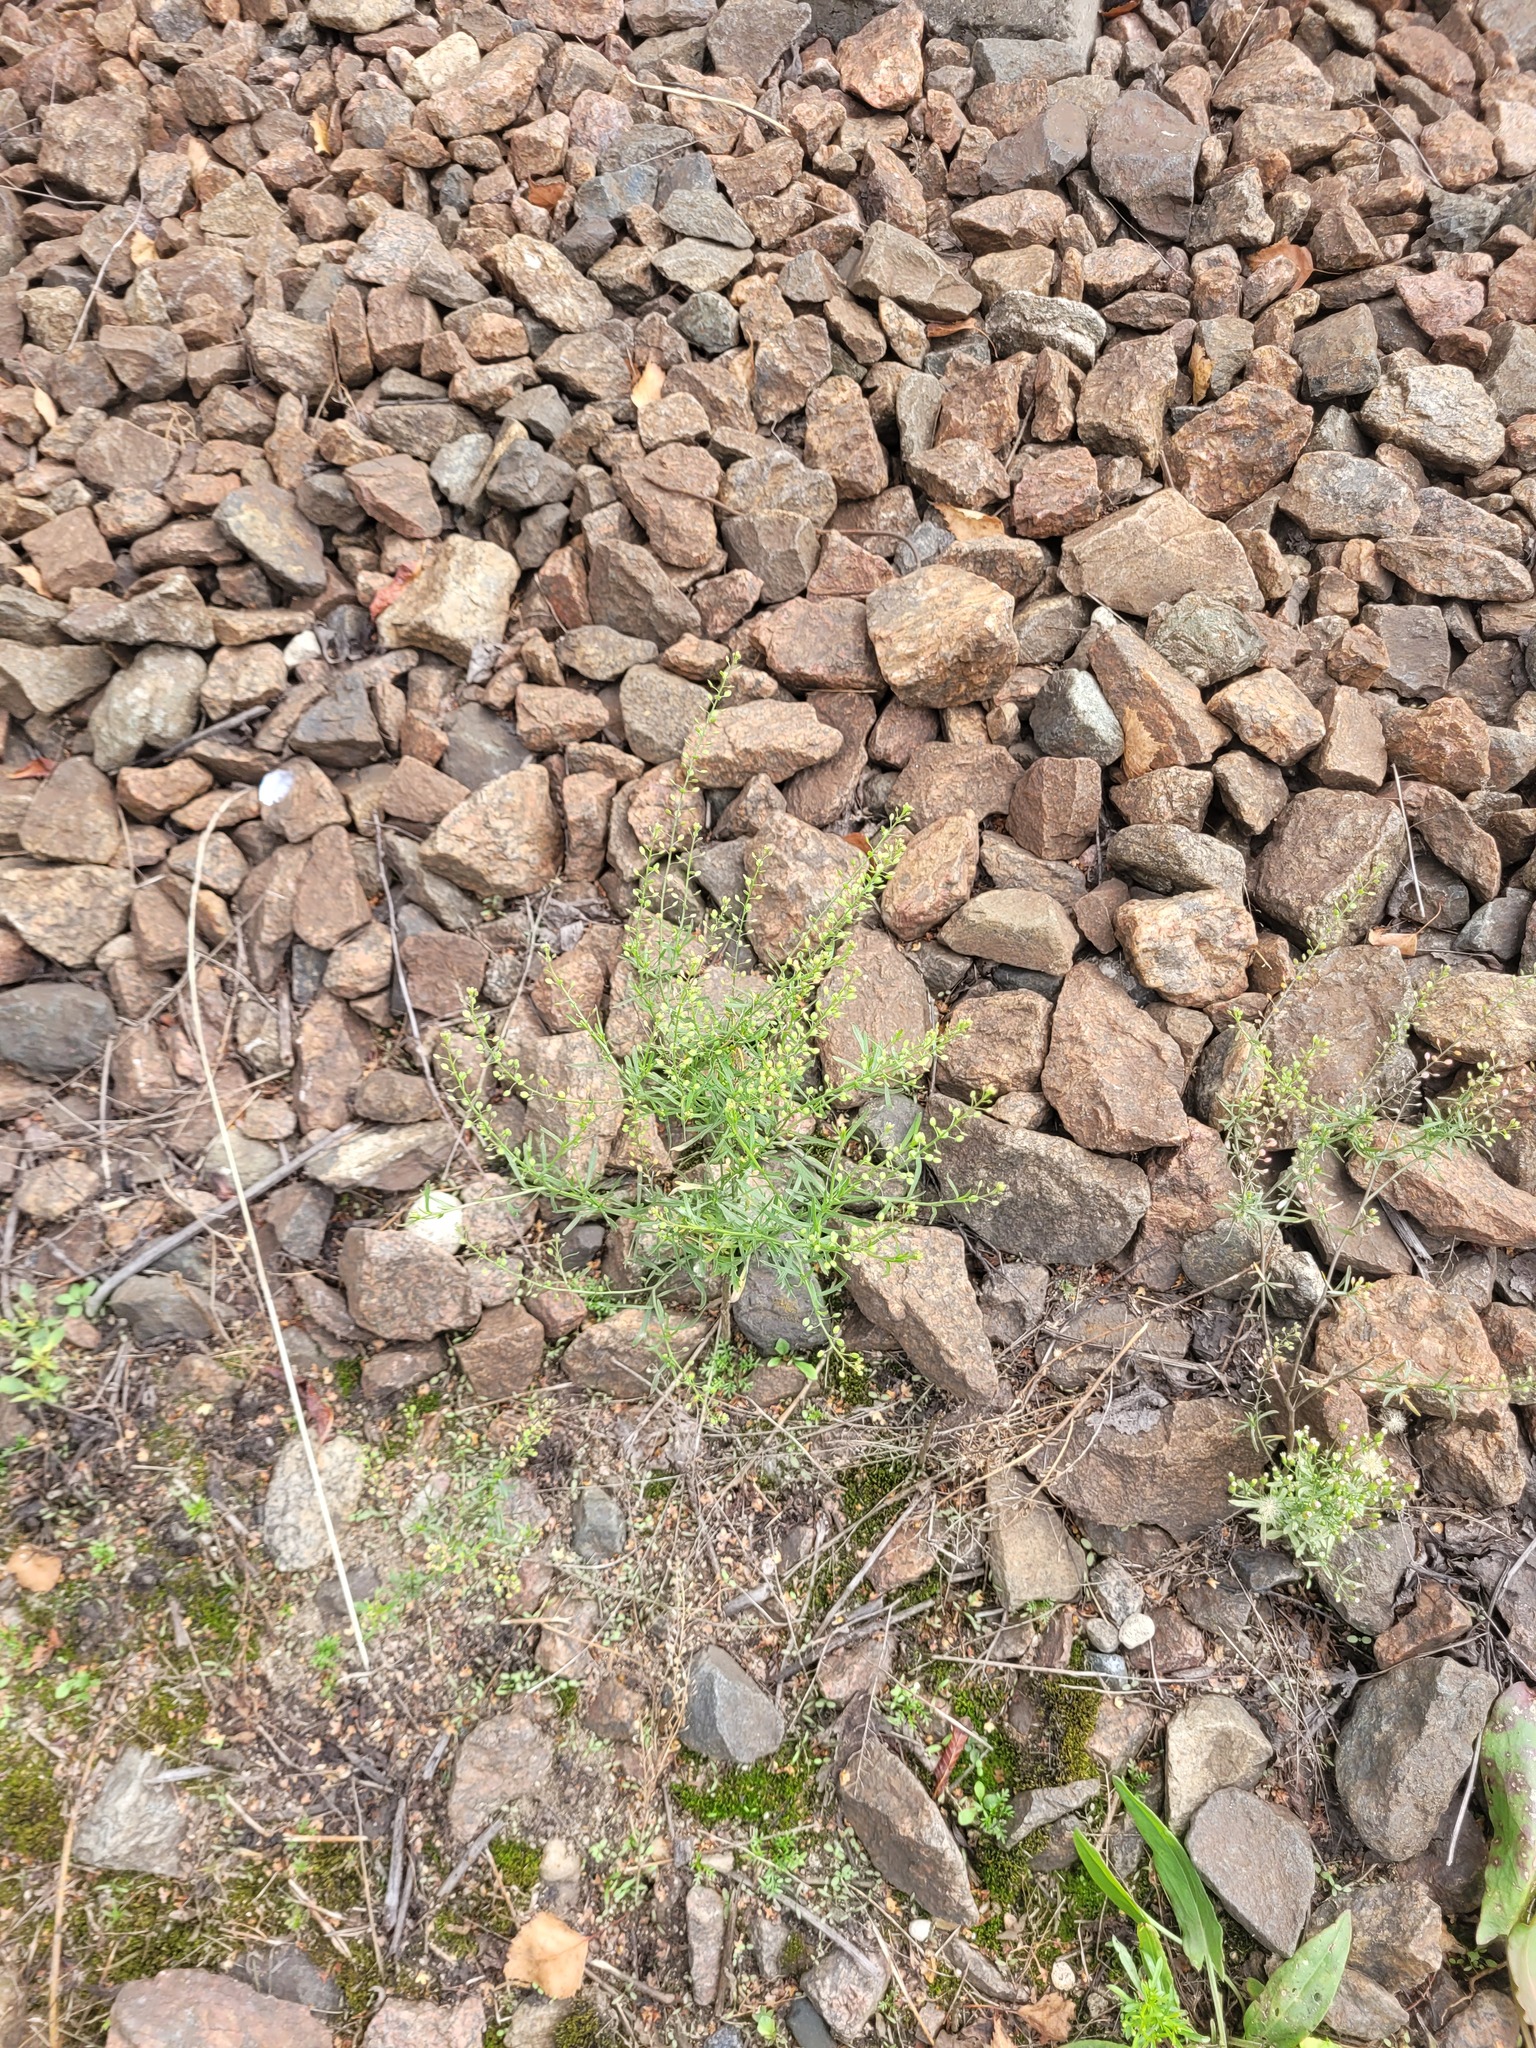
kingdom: Plantae
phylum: Tracheophyta
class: Magnoliopsida
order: Brassicales
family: Brassicaceae
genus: Lepidium
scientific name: Lepidium ruderale
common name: Narrow-leaved pepperwort
